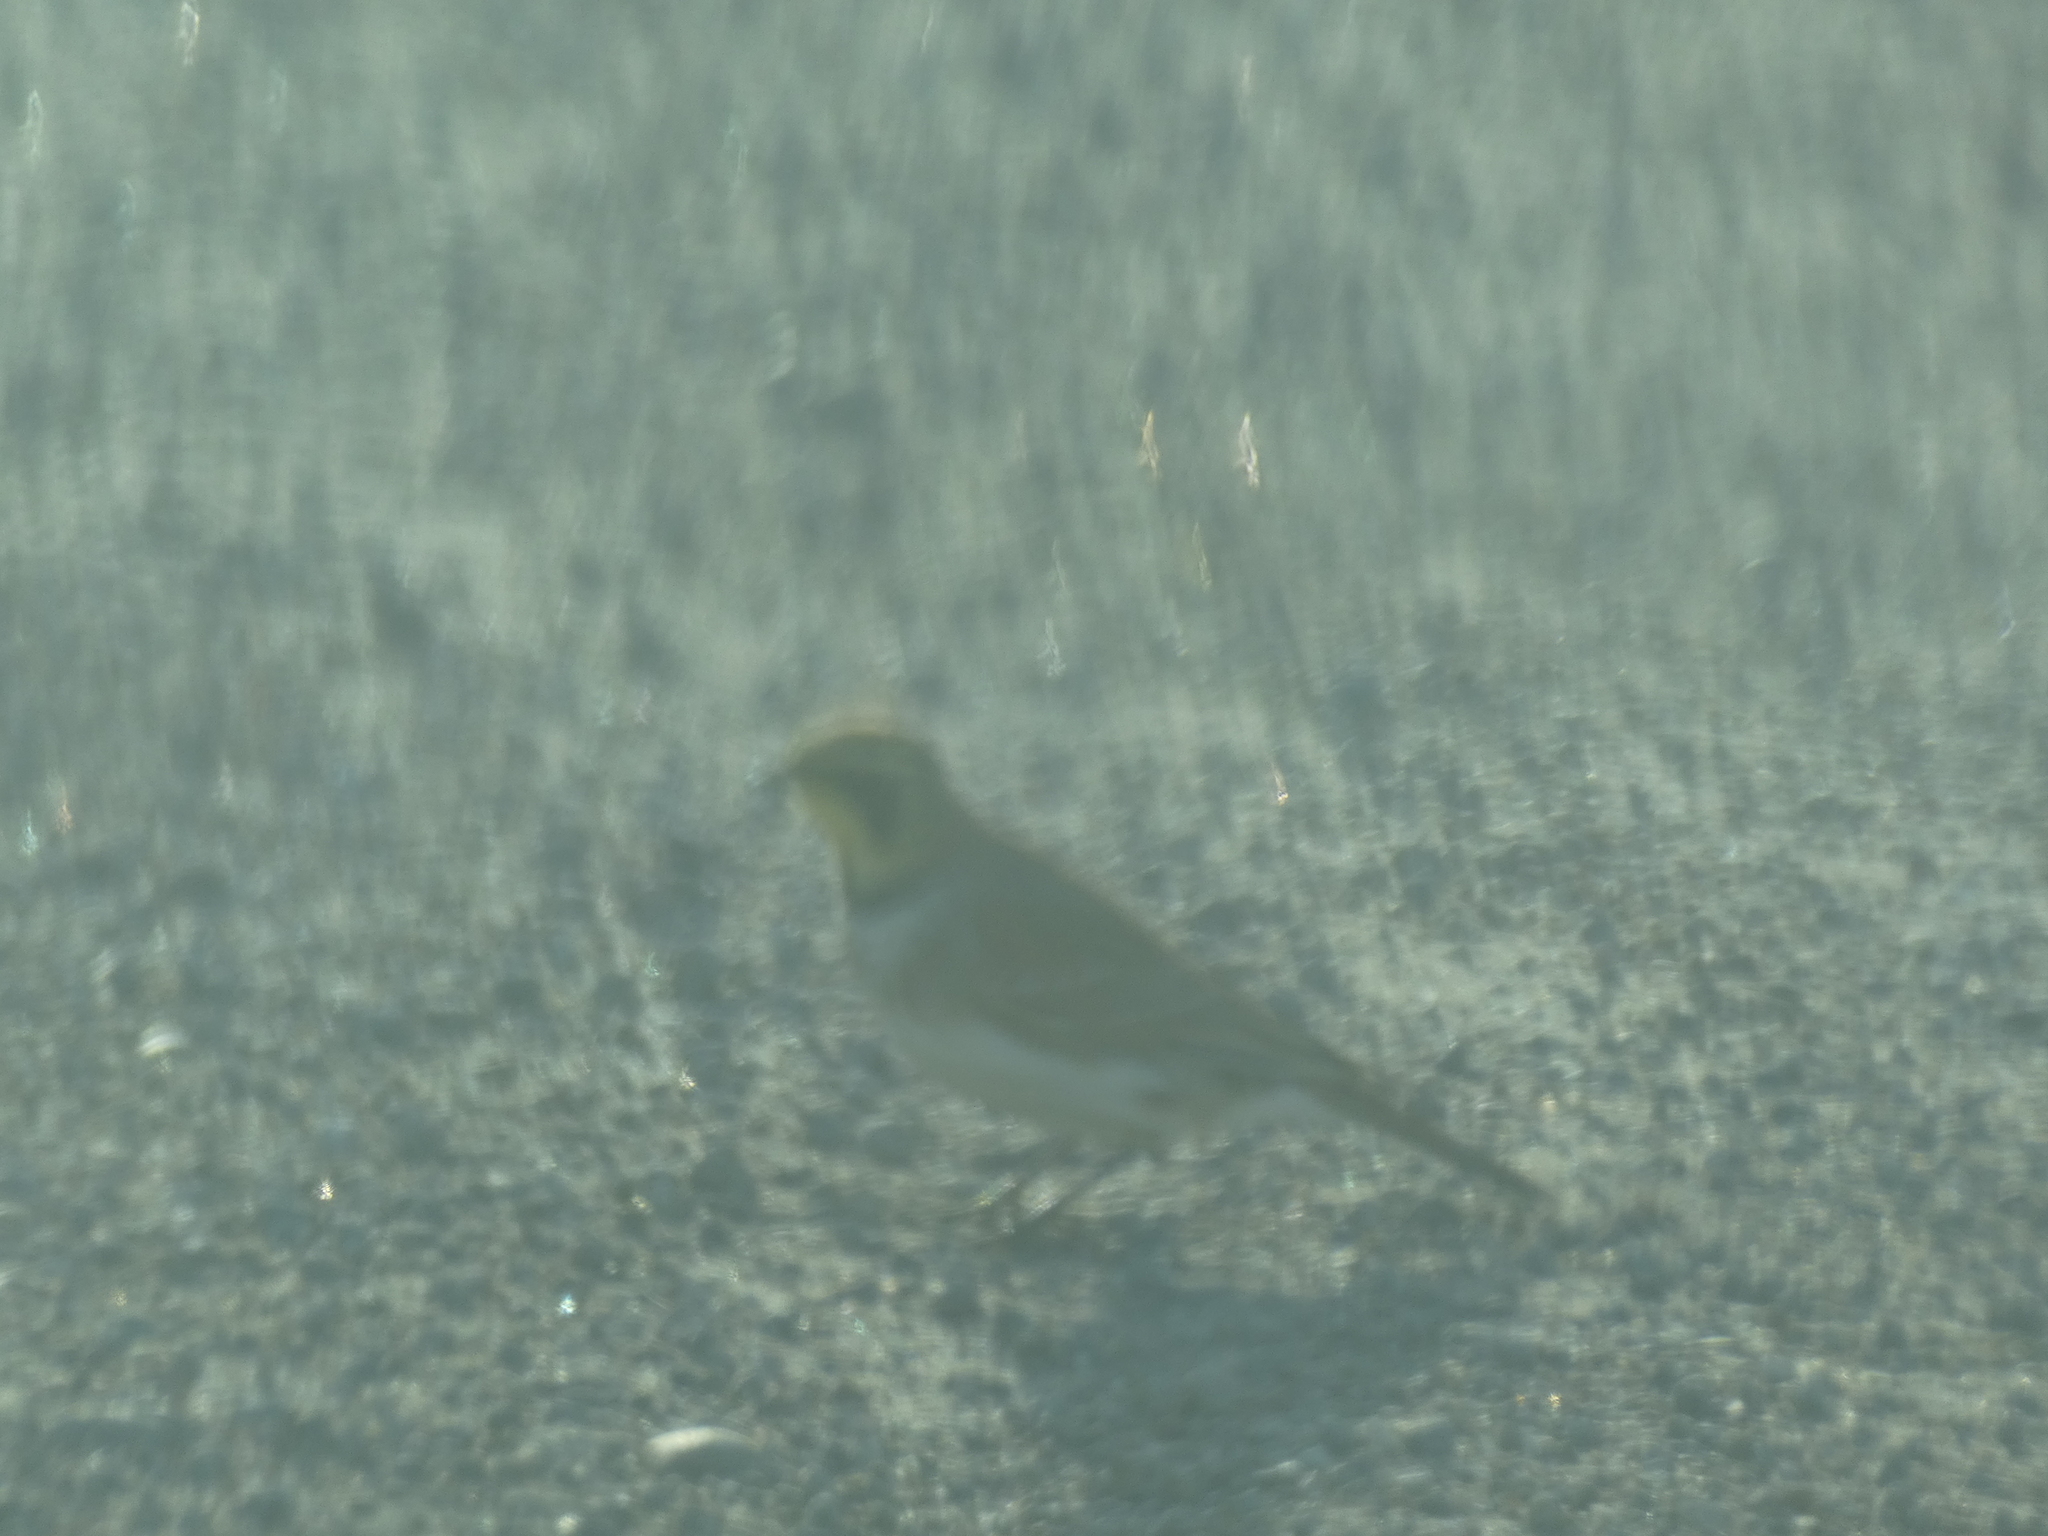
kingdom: Animalia
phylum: Chordata
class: Aves
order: Passeriformes
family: Alaudidae
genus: Eremophila
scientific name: Eremophila alpestris
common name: Horned lark
